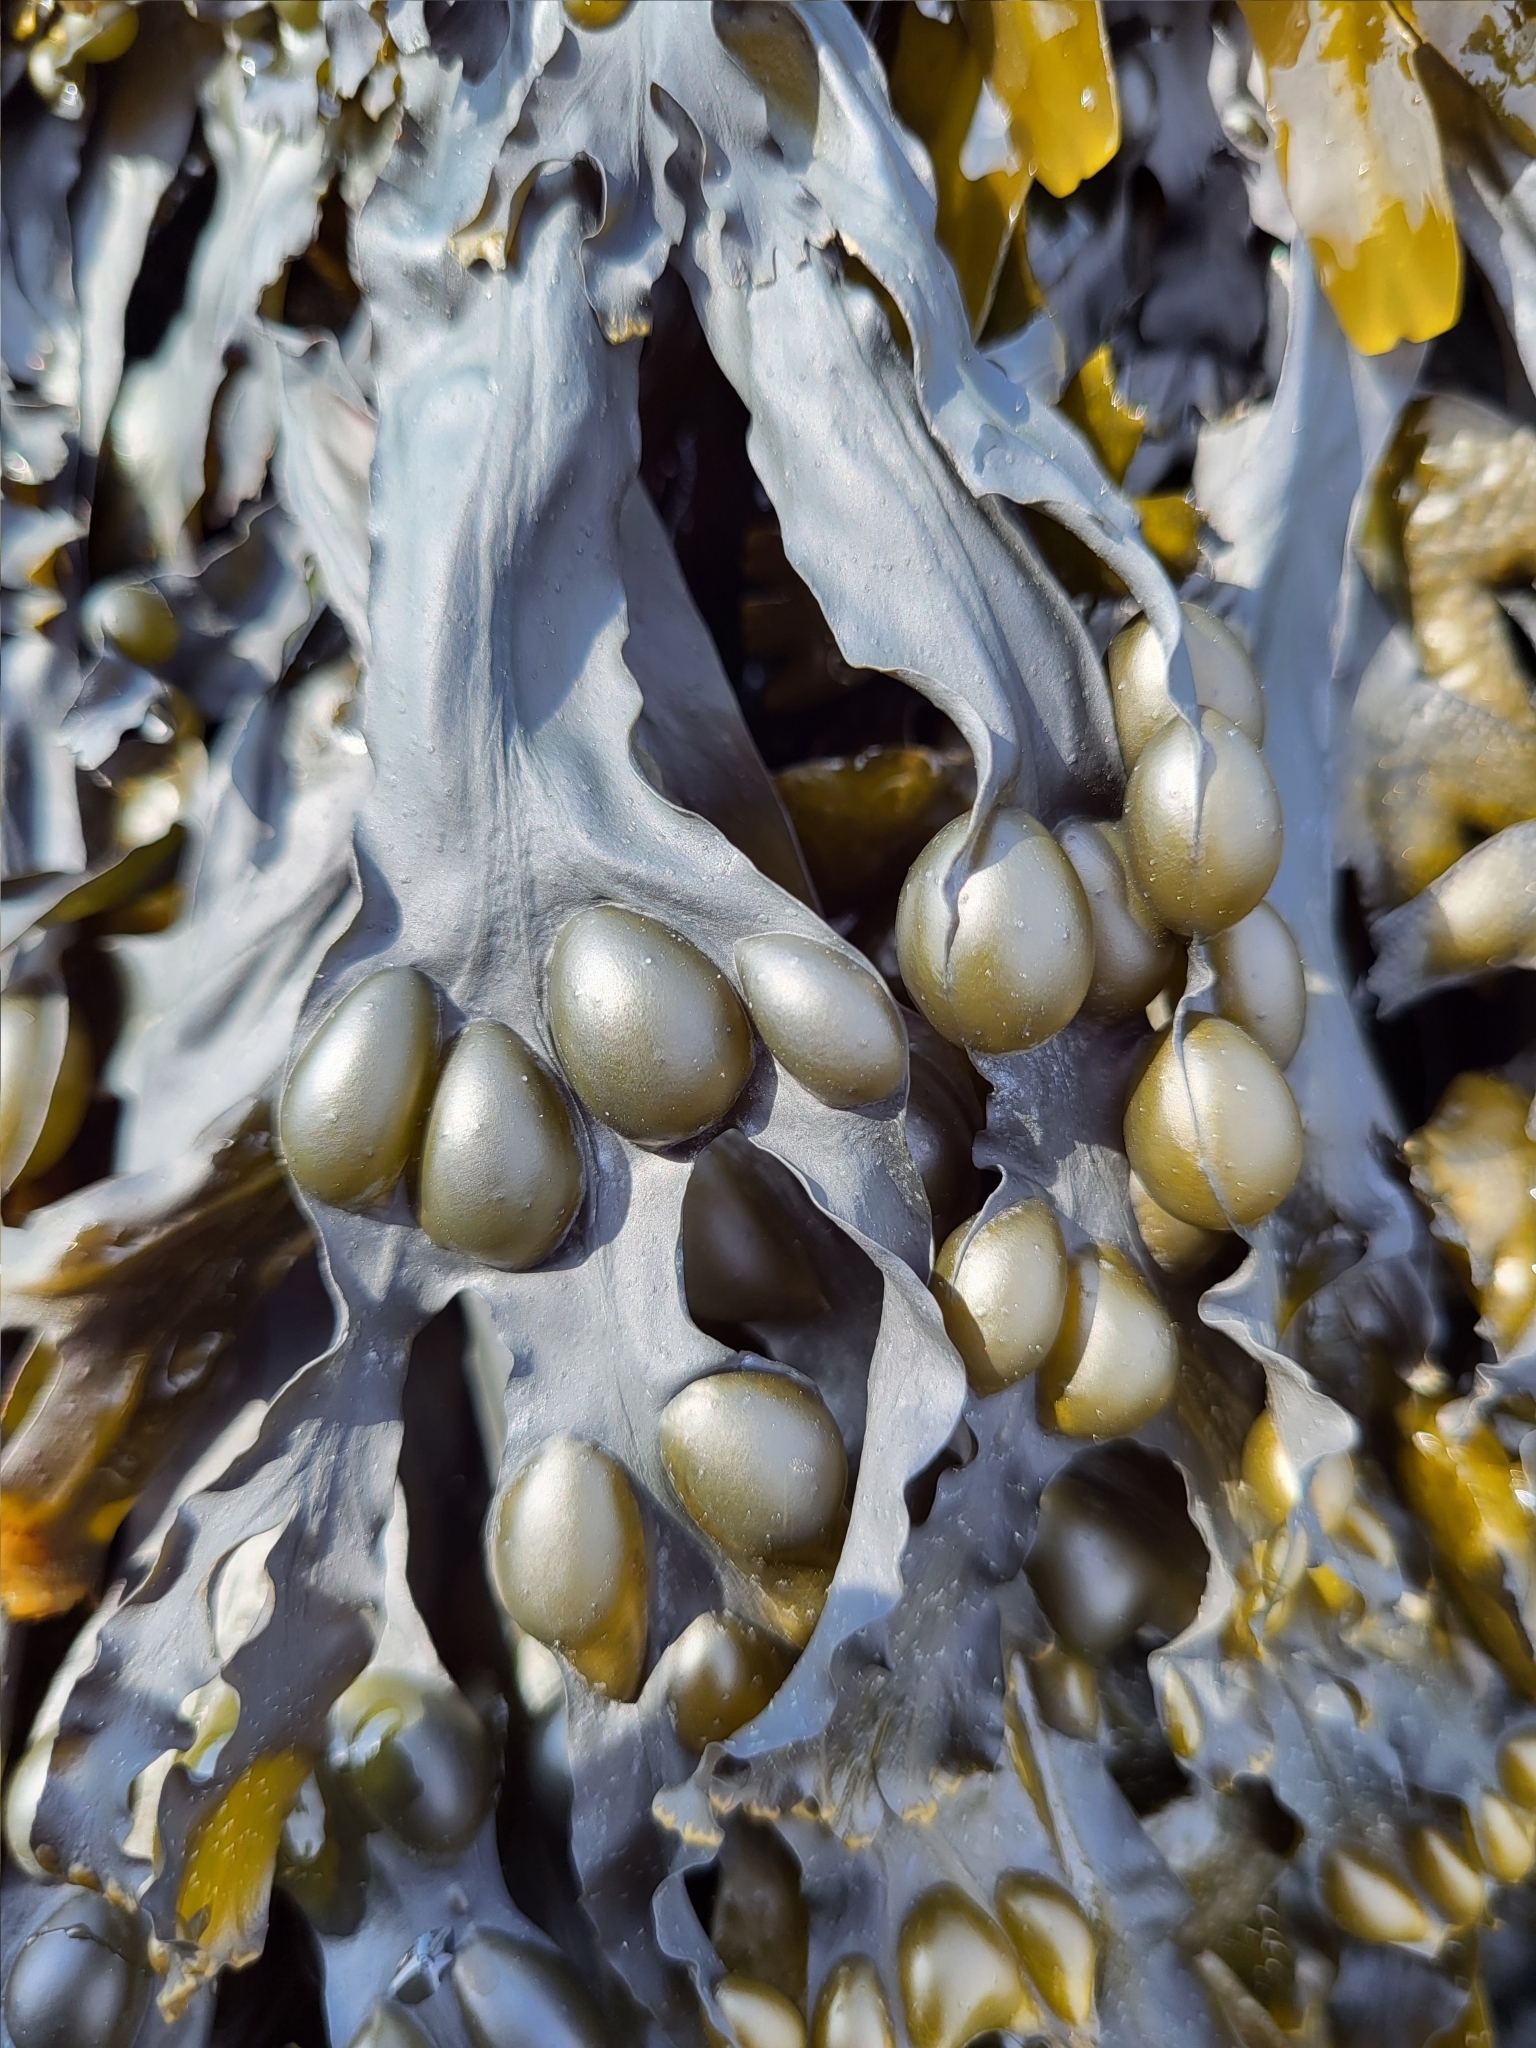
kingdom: Chromista
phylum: Ochrophyta
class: Phaeophyceae
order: Fucales
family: Fucaceae
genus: Fucus
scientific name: Fucus vesiculosus
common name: Bladder wrack
